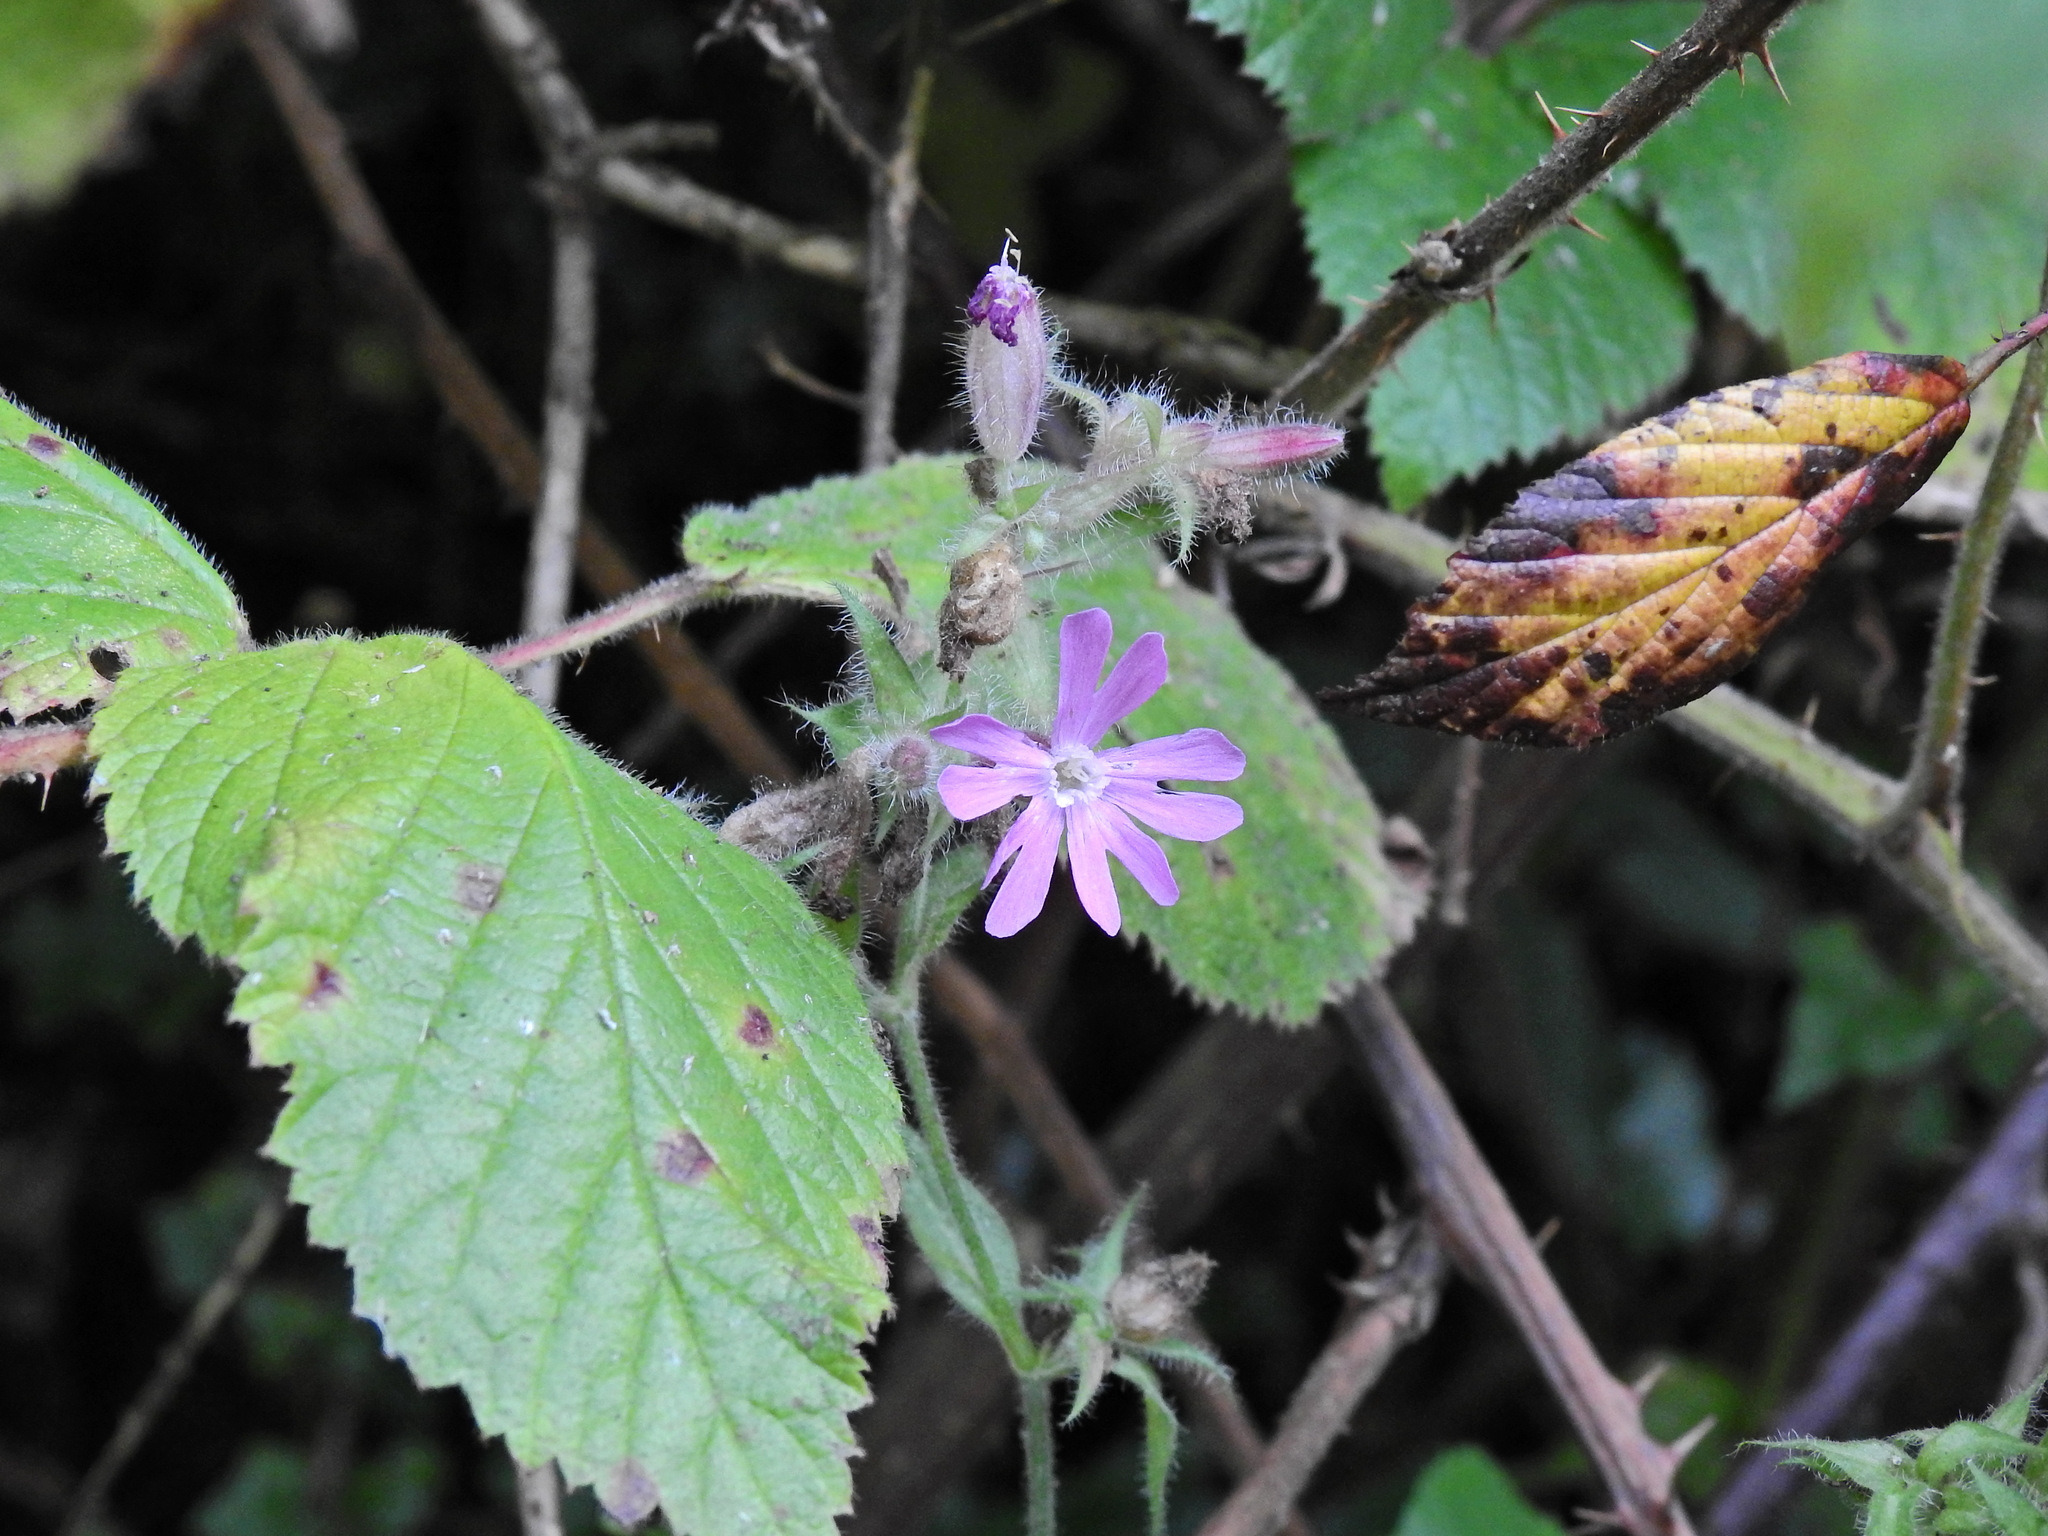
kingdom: Plantae
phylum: Tracheophyta
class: Magnoliopsida
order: Caryophyllales
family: Caryophyllaceae
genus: Silene
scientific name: Silene dioica
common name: Red campion
